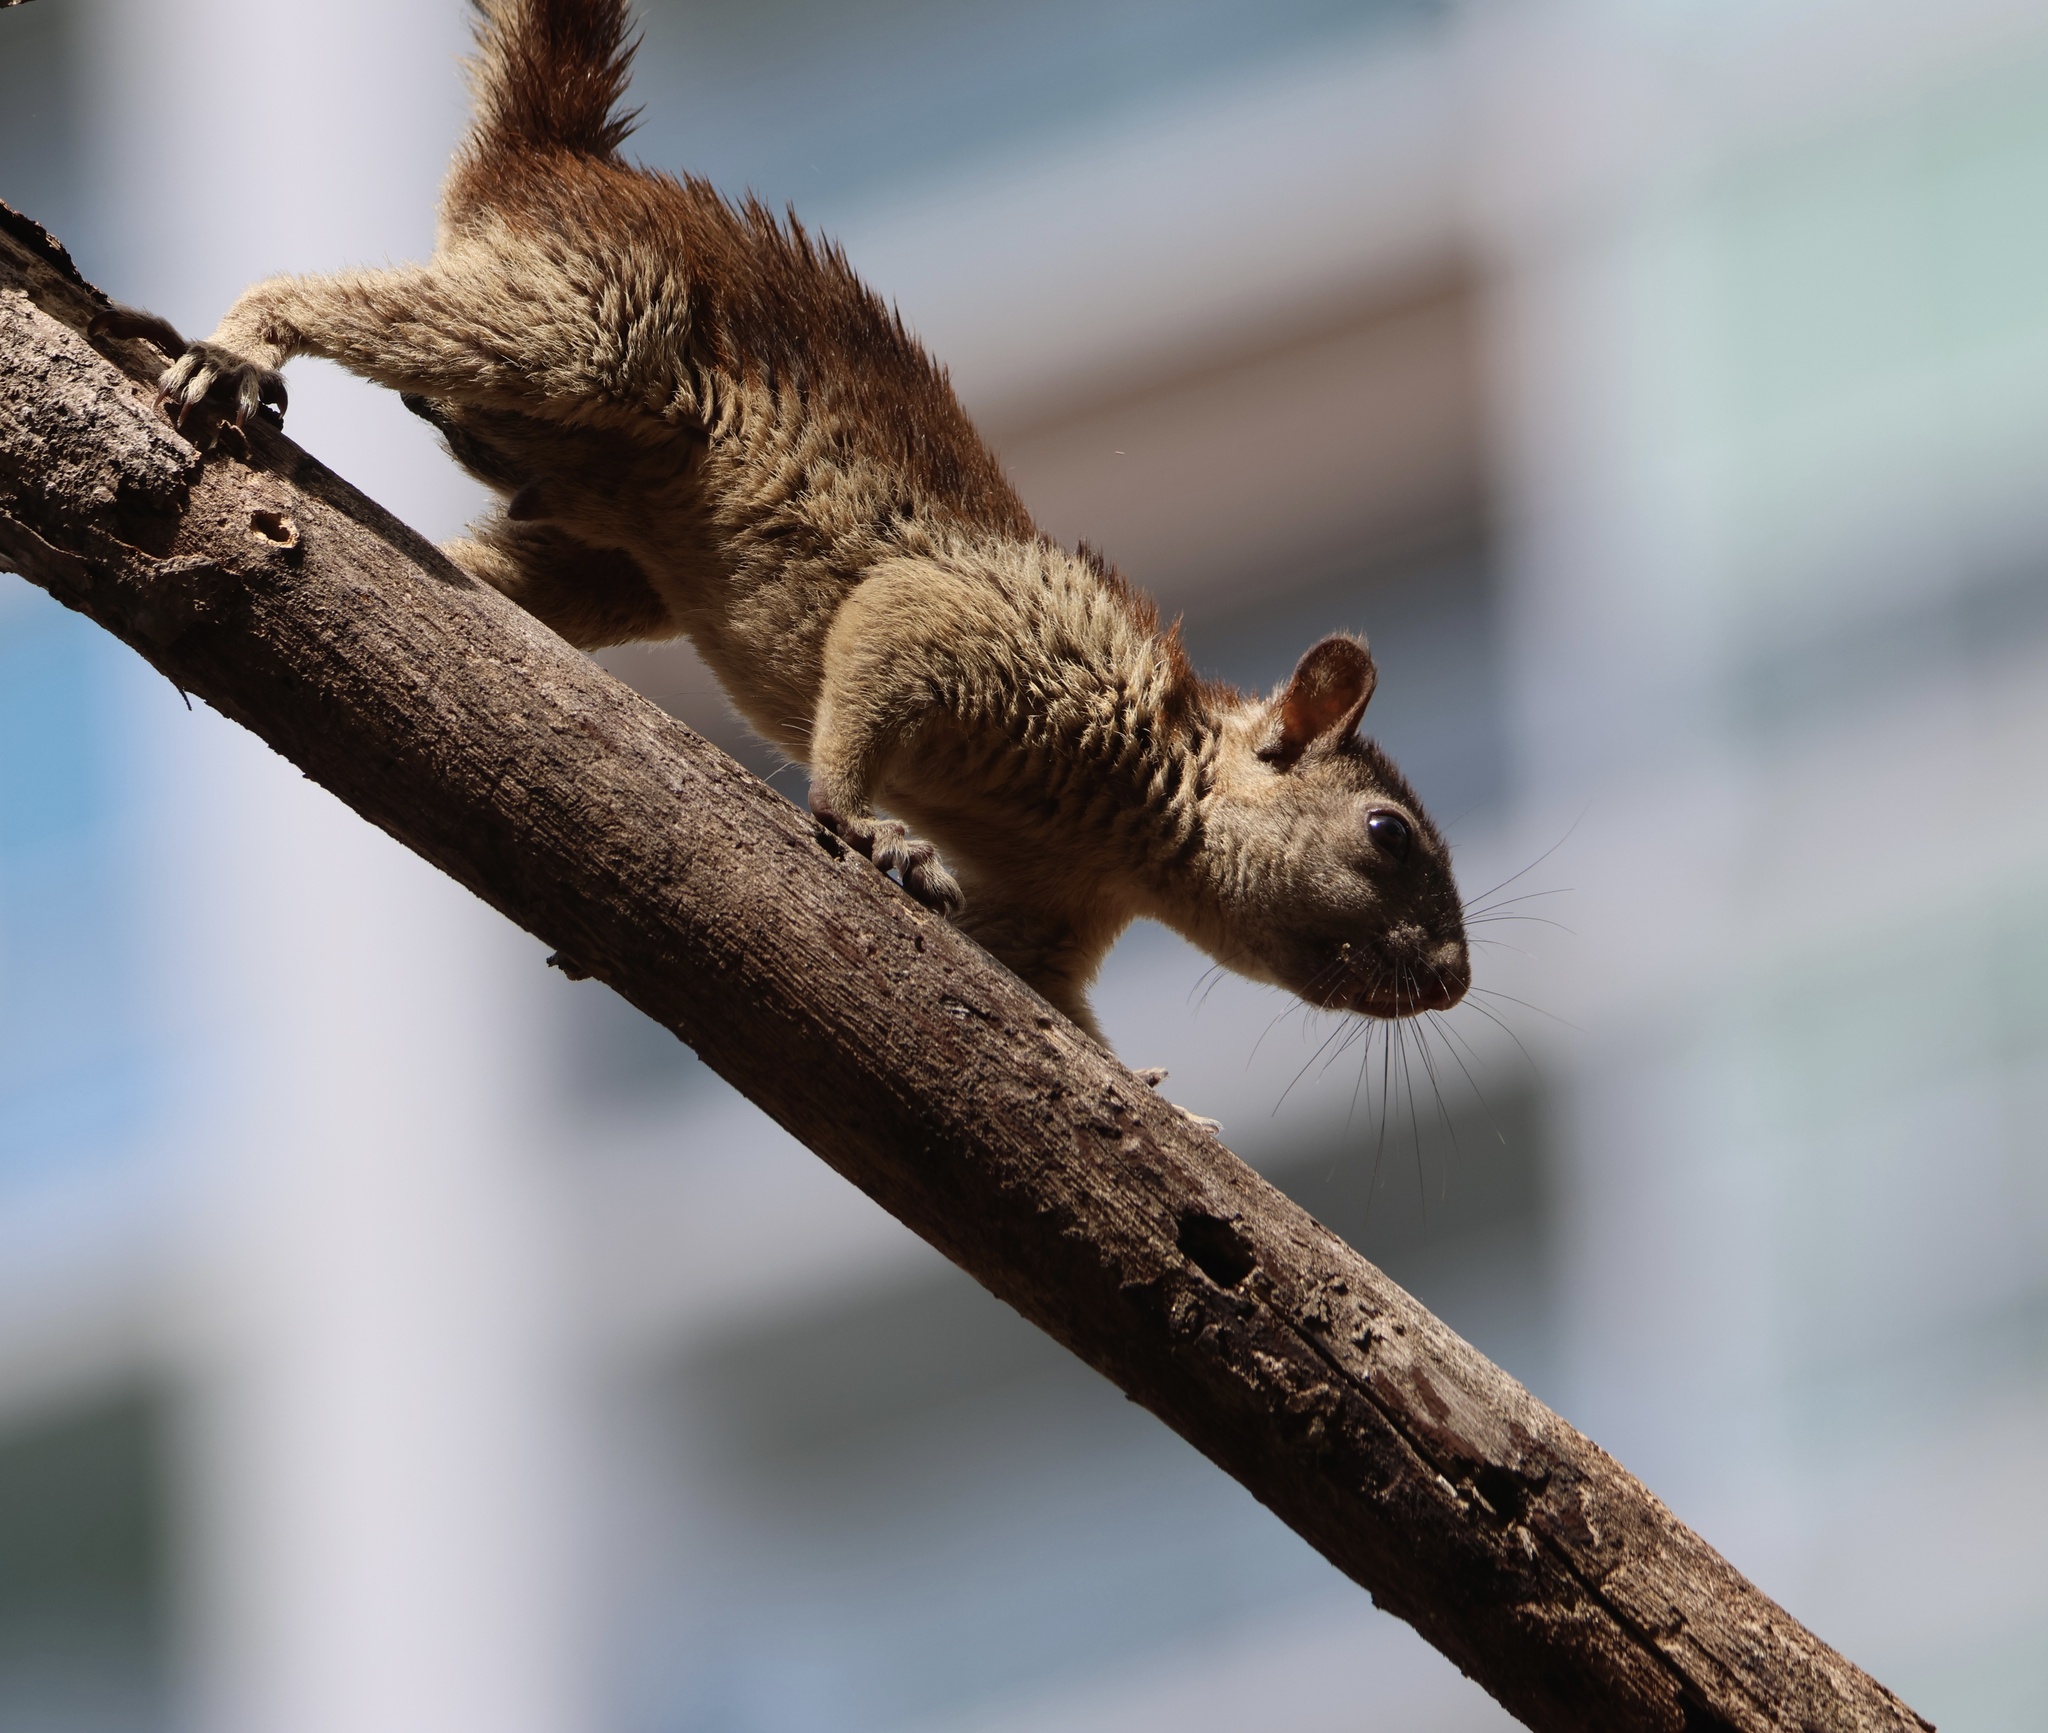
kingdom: Animalia
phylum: Chordata
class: Mammalia
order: Rodentia
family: Sciuridae
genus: Sciurus
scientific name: Sciurus variegatoides
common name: Variegated squirrel
